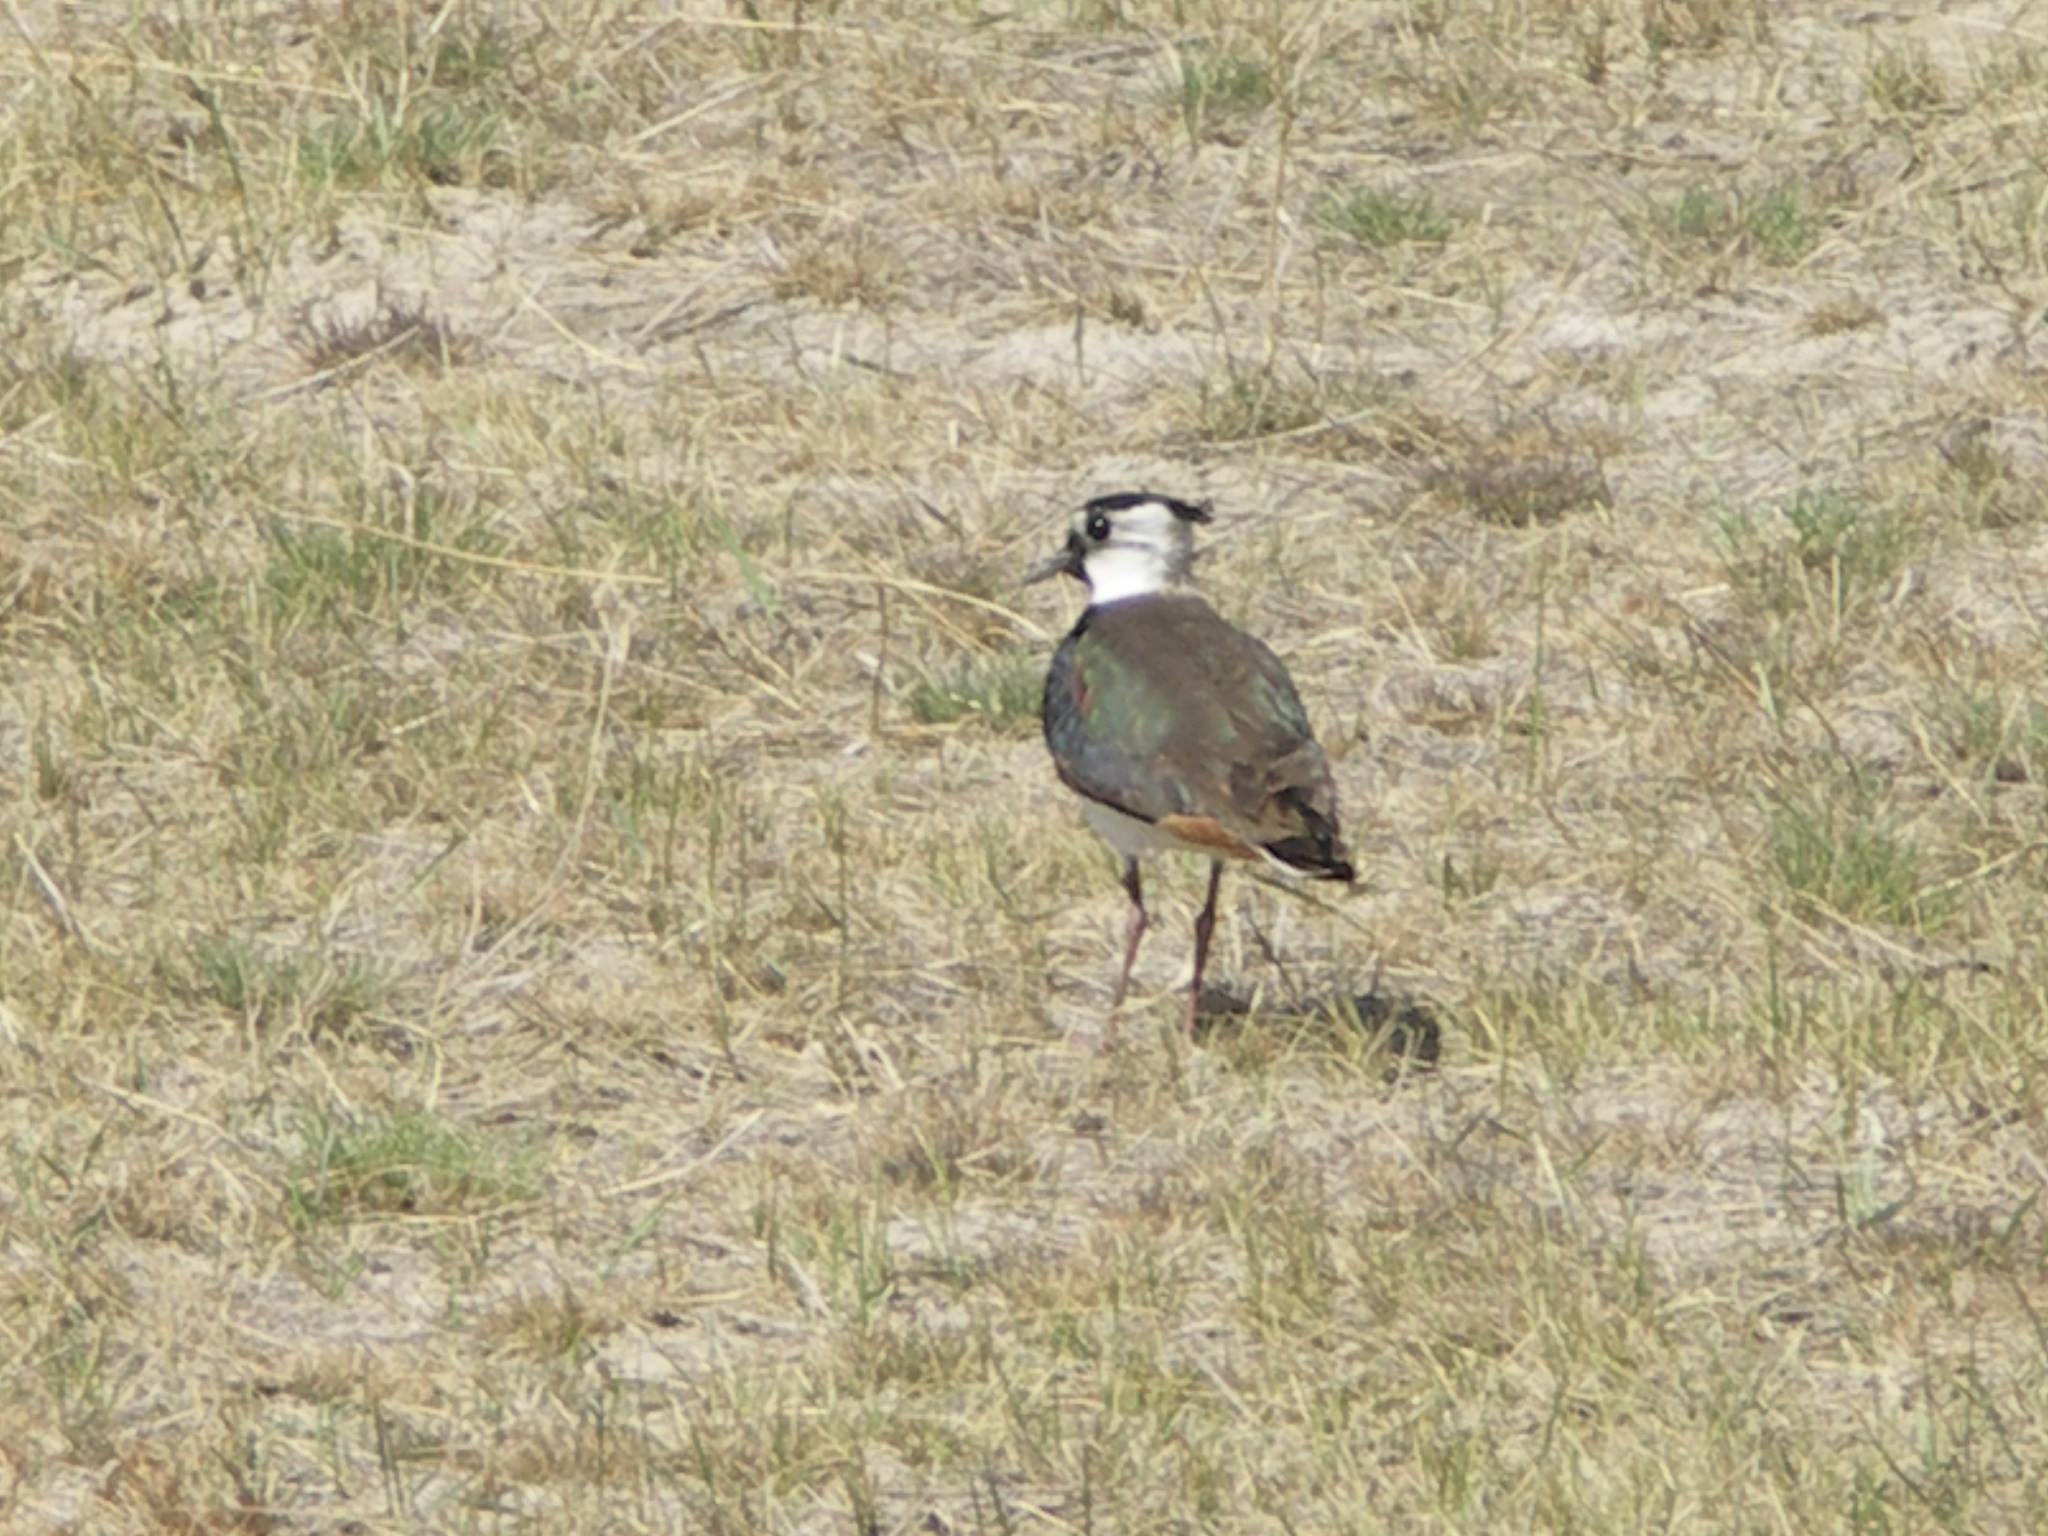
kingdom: Animalia
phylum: Chordata
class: Aves
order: Charadriiformes
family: Charadriidae
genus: Vanellus
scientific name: Vanellus vanellus
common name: Northern lapwing
